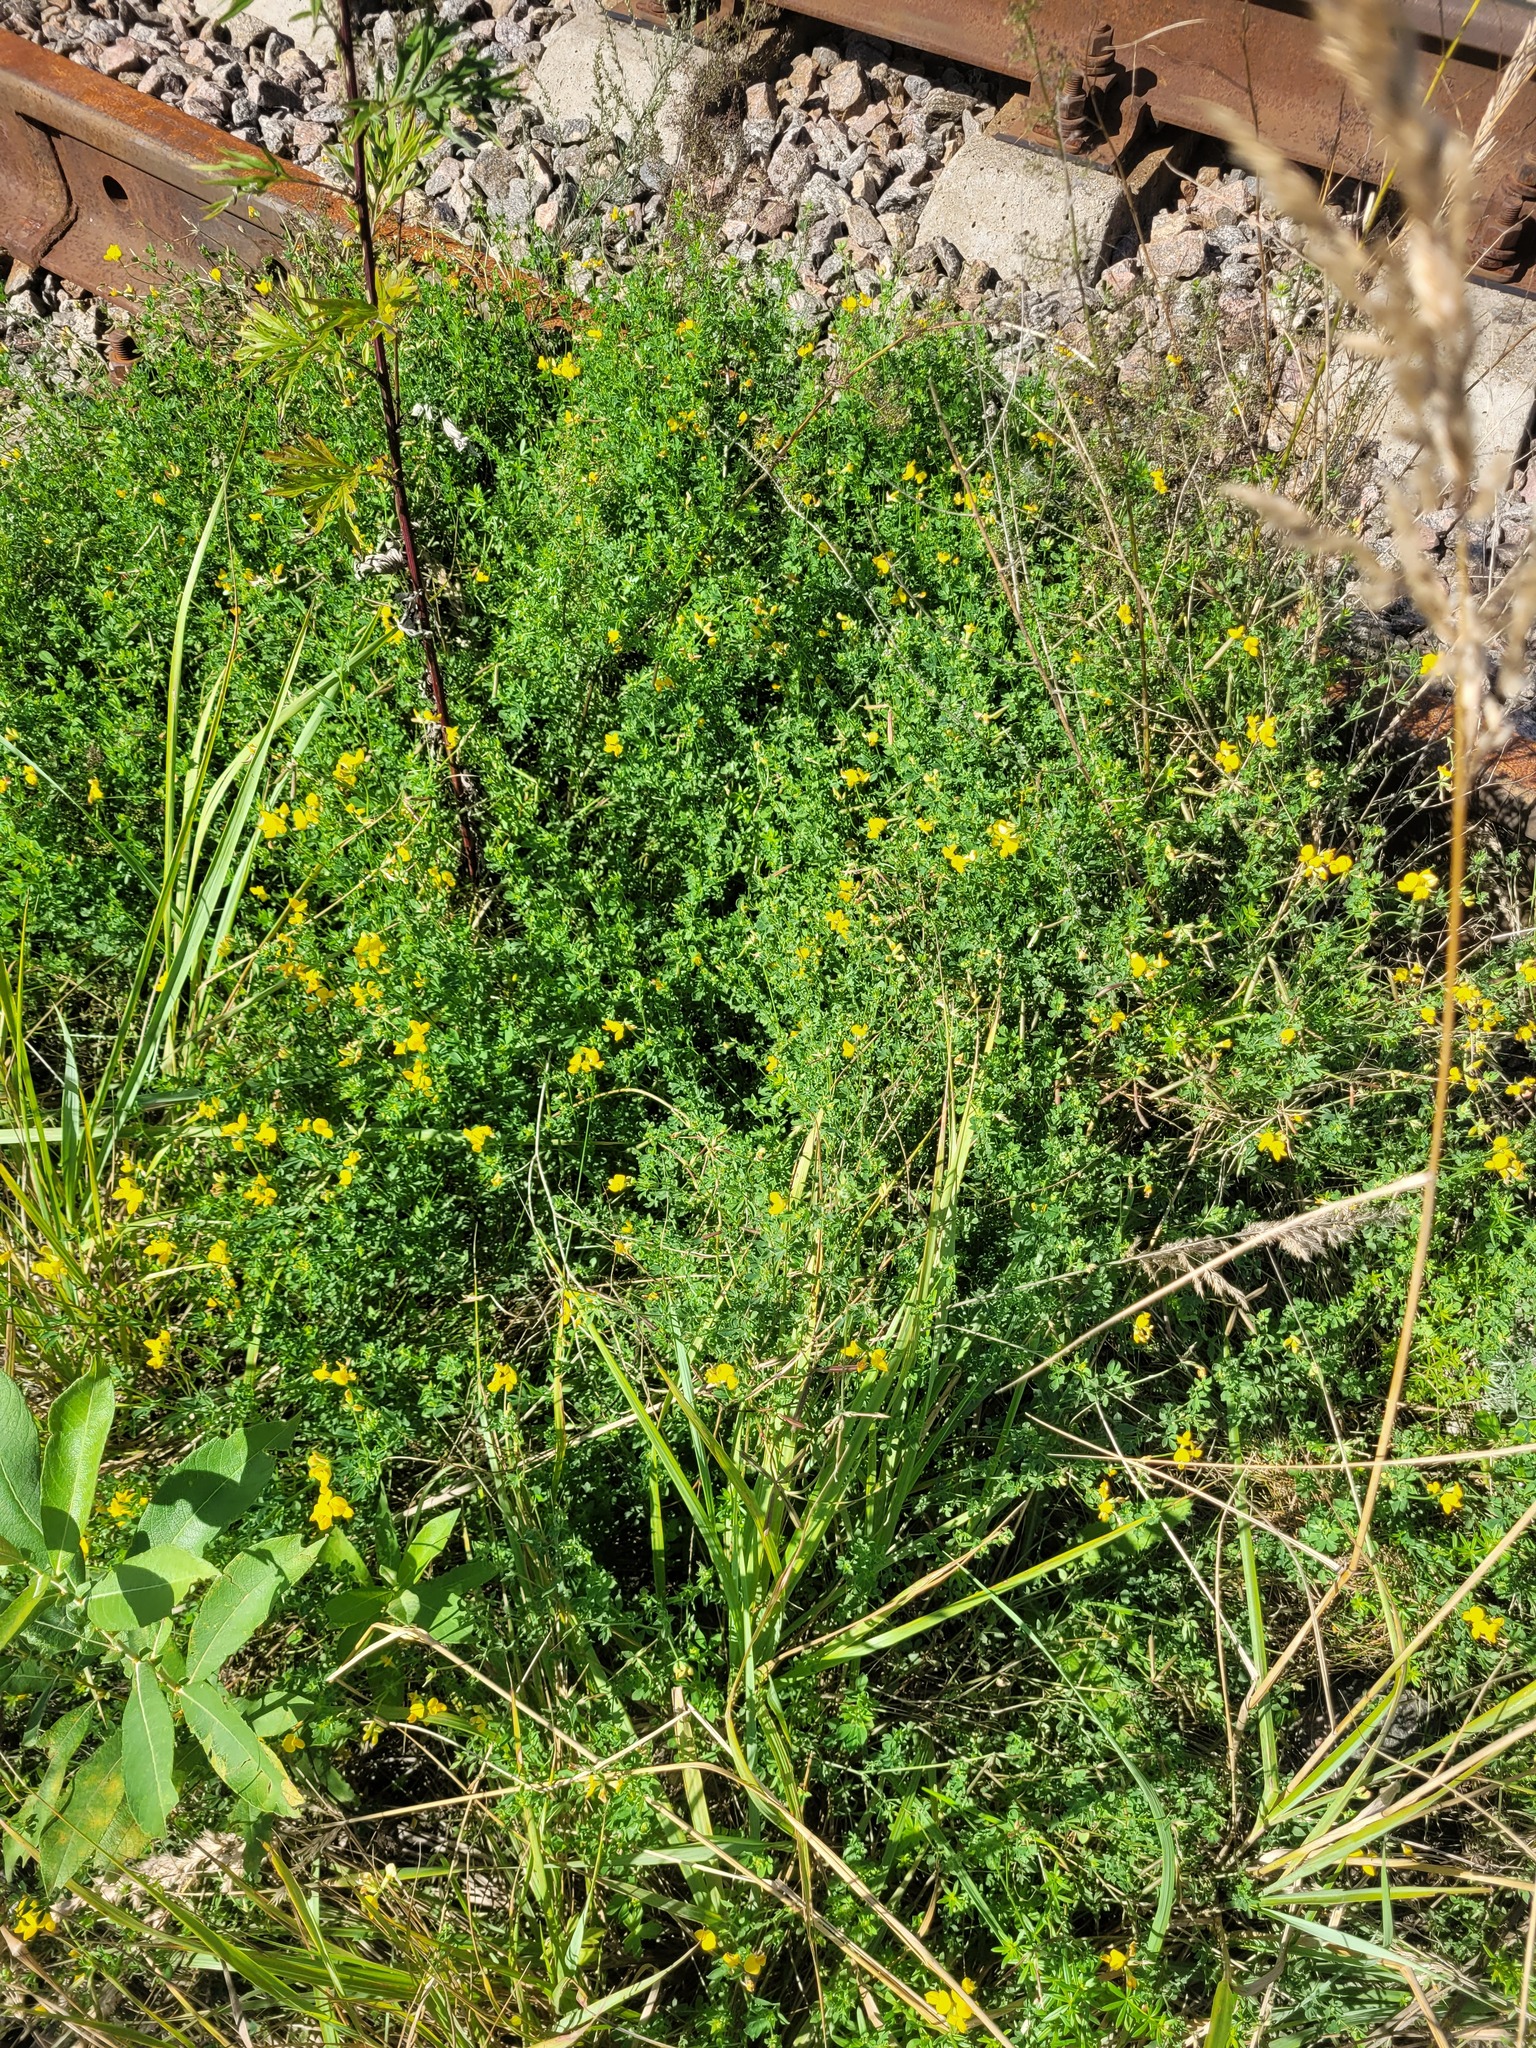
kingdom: Plantae
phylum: Tracheophyta
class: Magnoliopsida
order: Fabales
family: Fabaceae
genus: Lotus
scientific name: Lotus corniculatus
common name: Common bird's-foot-trefoil
